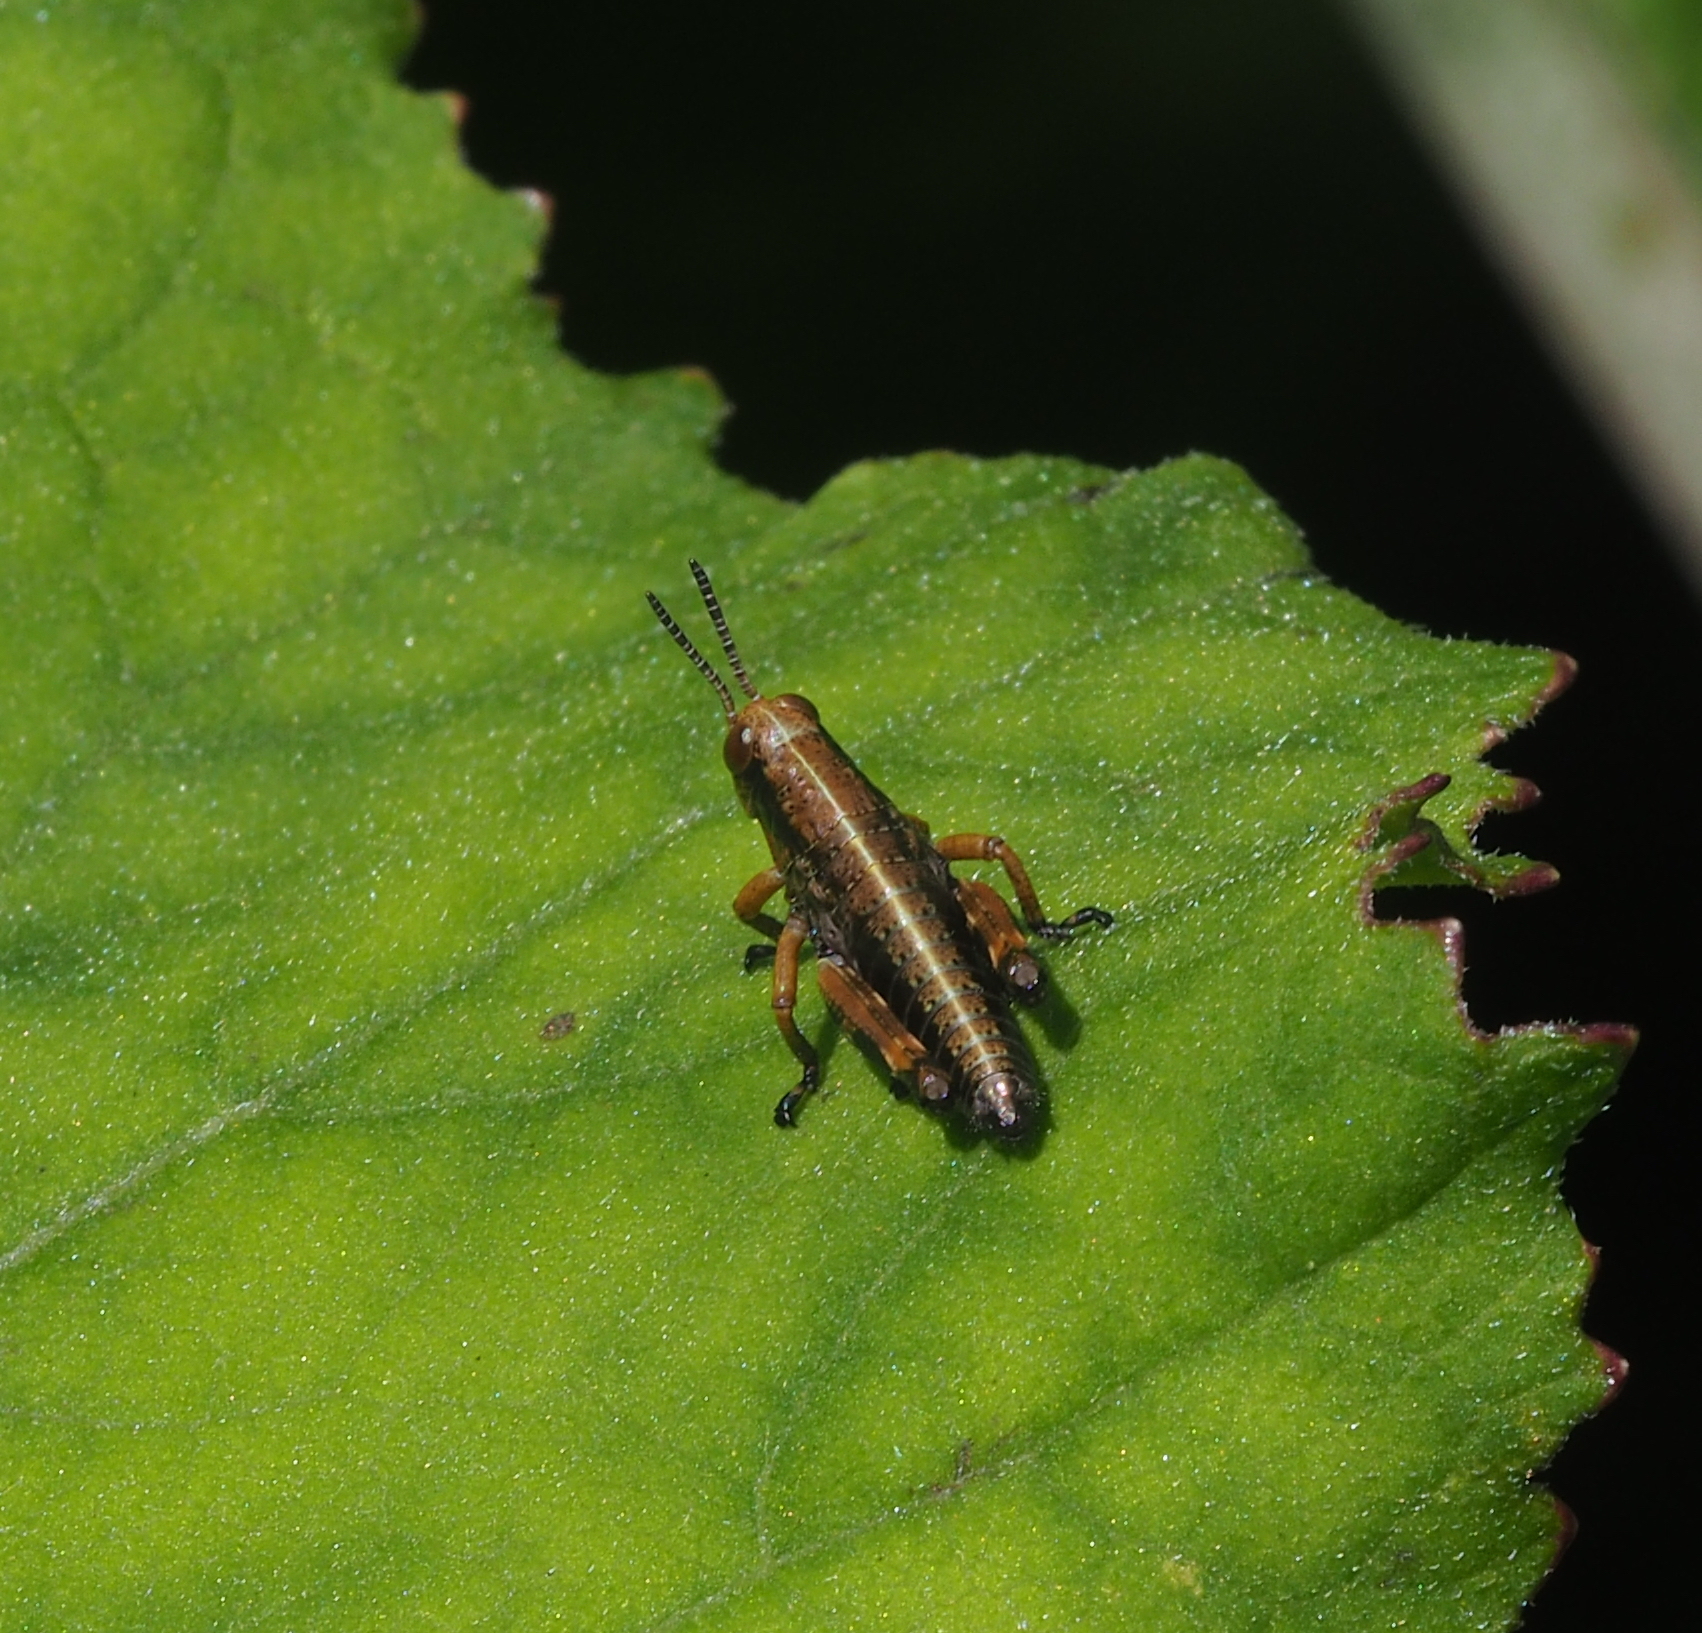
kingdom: Animalia
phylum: Arthropoda
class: Insecta
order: Orthoptera
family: Acrididae
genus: Miramella
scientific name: Miramella alpina
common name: Green mountain grasshopper
